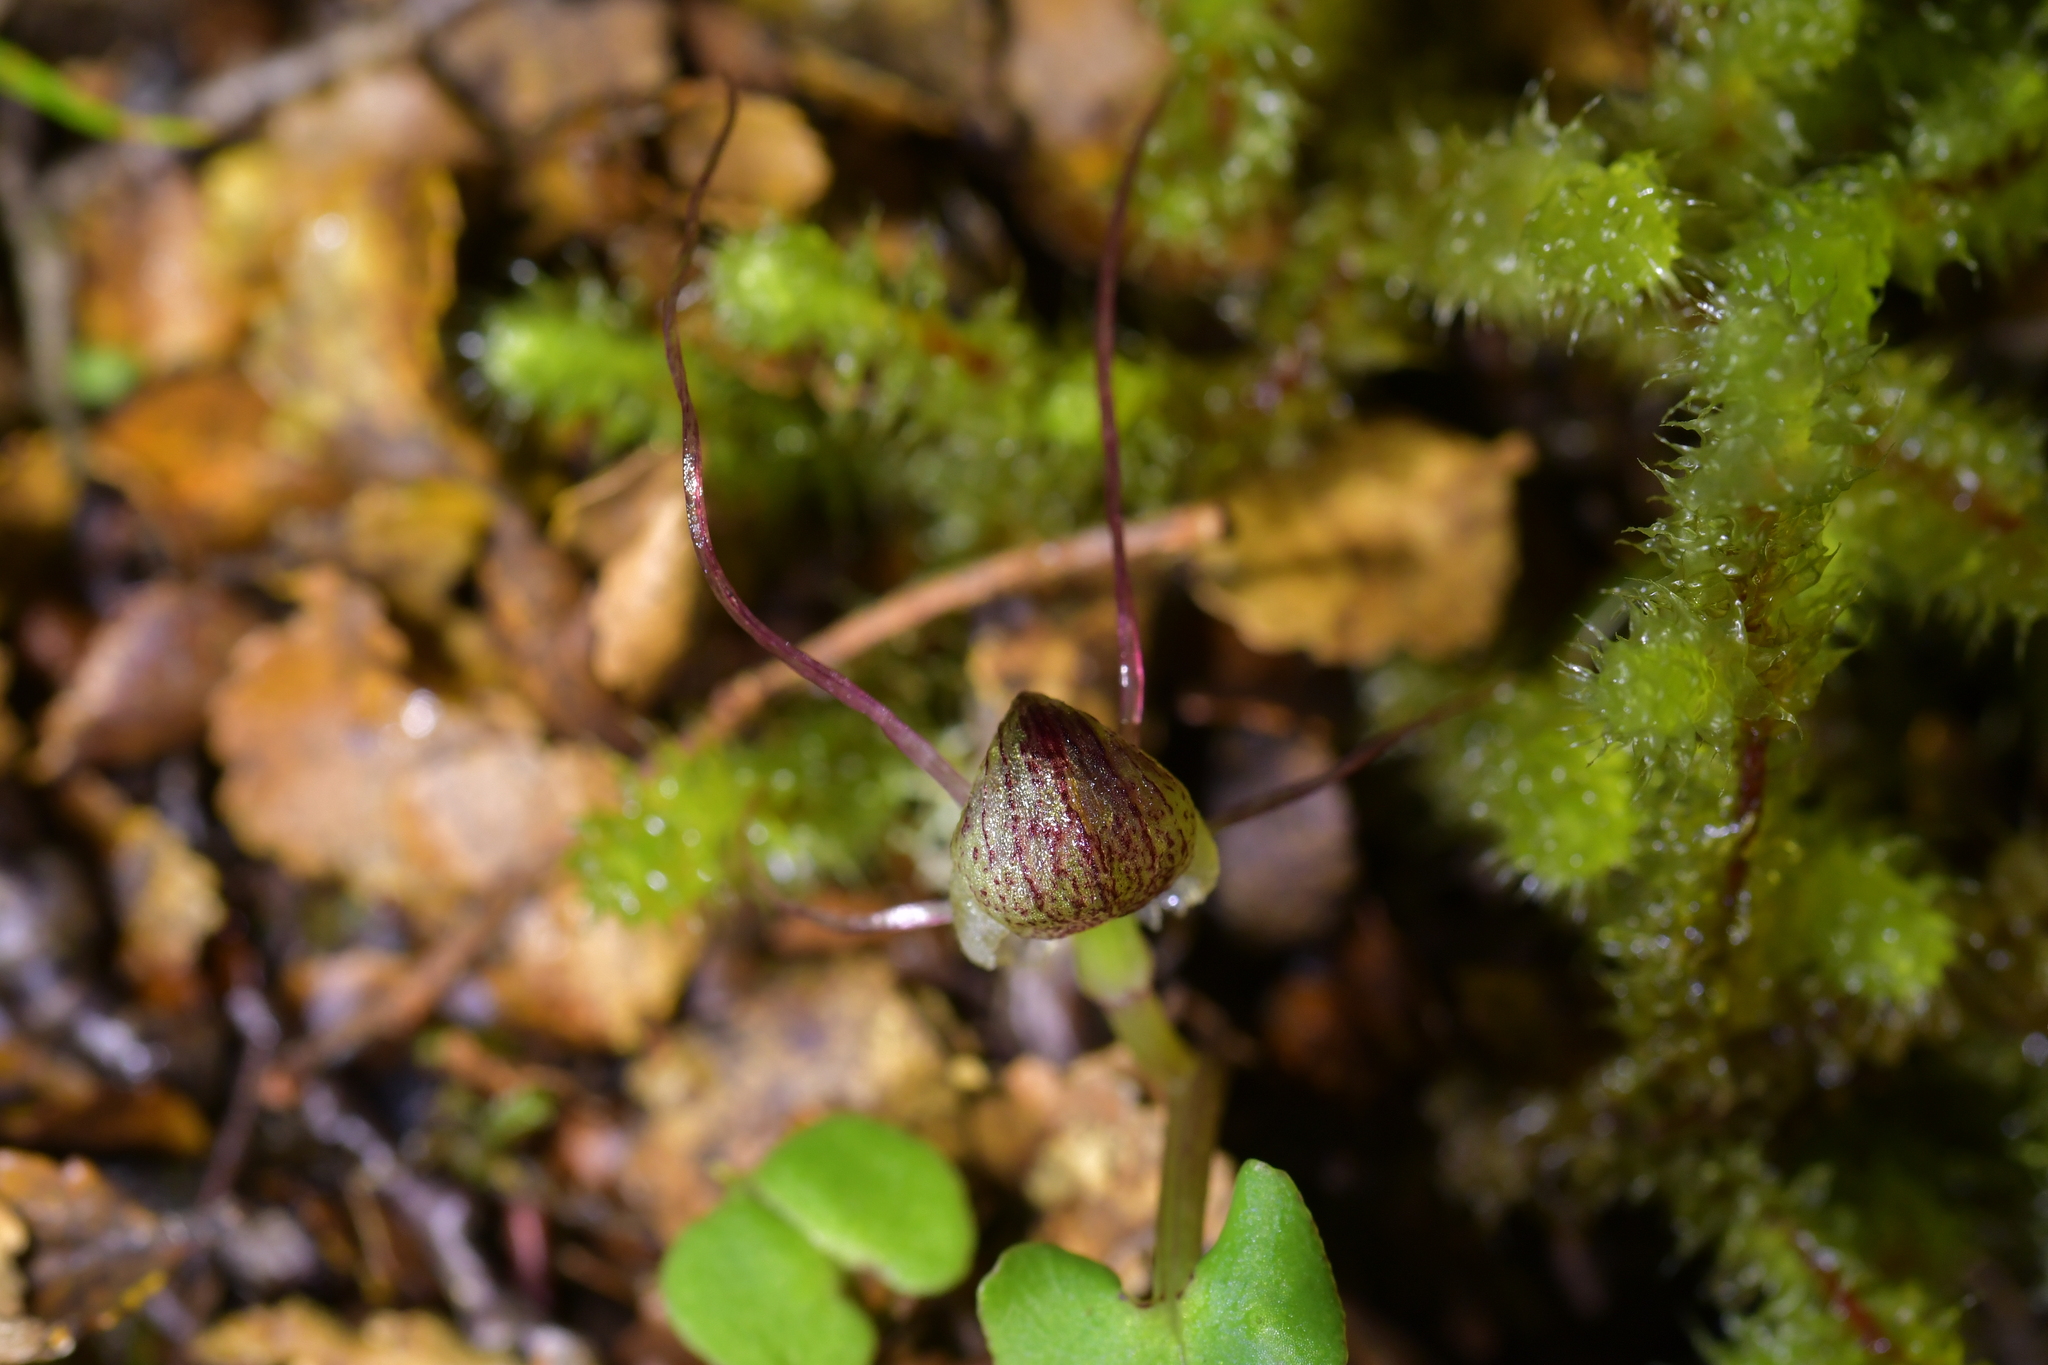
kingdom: Plantae
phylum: Tracheophyta
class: Liliopsida
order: Asparagales
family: Orchidaceae
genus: Corybas
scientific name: Corybas walliae
